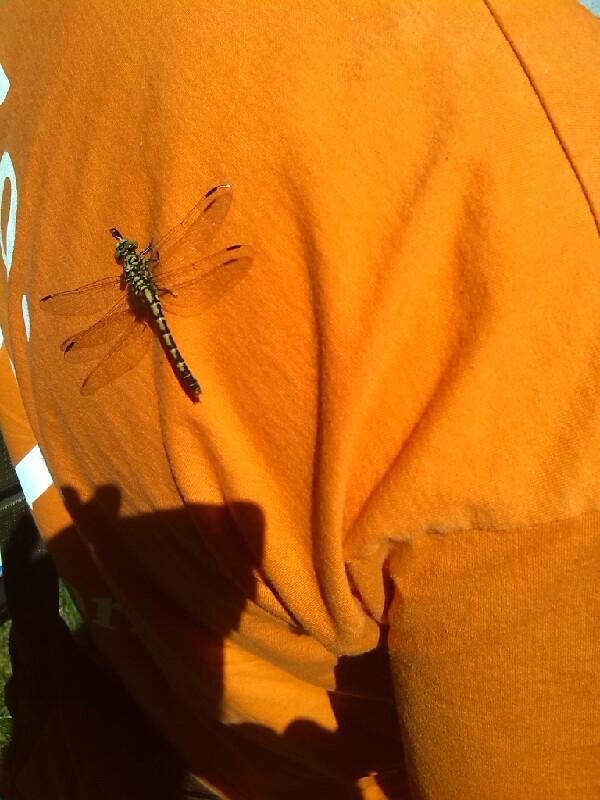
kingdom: Animalia
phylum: Arthropoda
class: Insecta
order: Odonata
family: Gomphidae
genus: Onychogomphus
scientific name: Onychogomphus forcipatus
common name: Small pincertail
